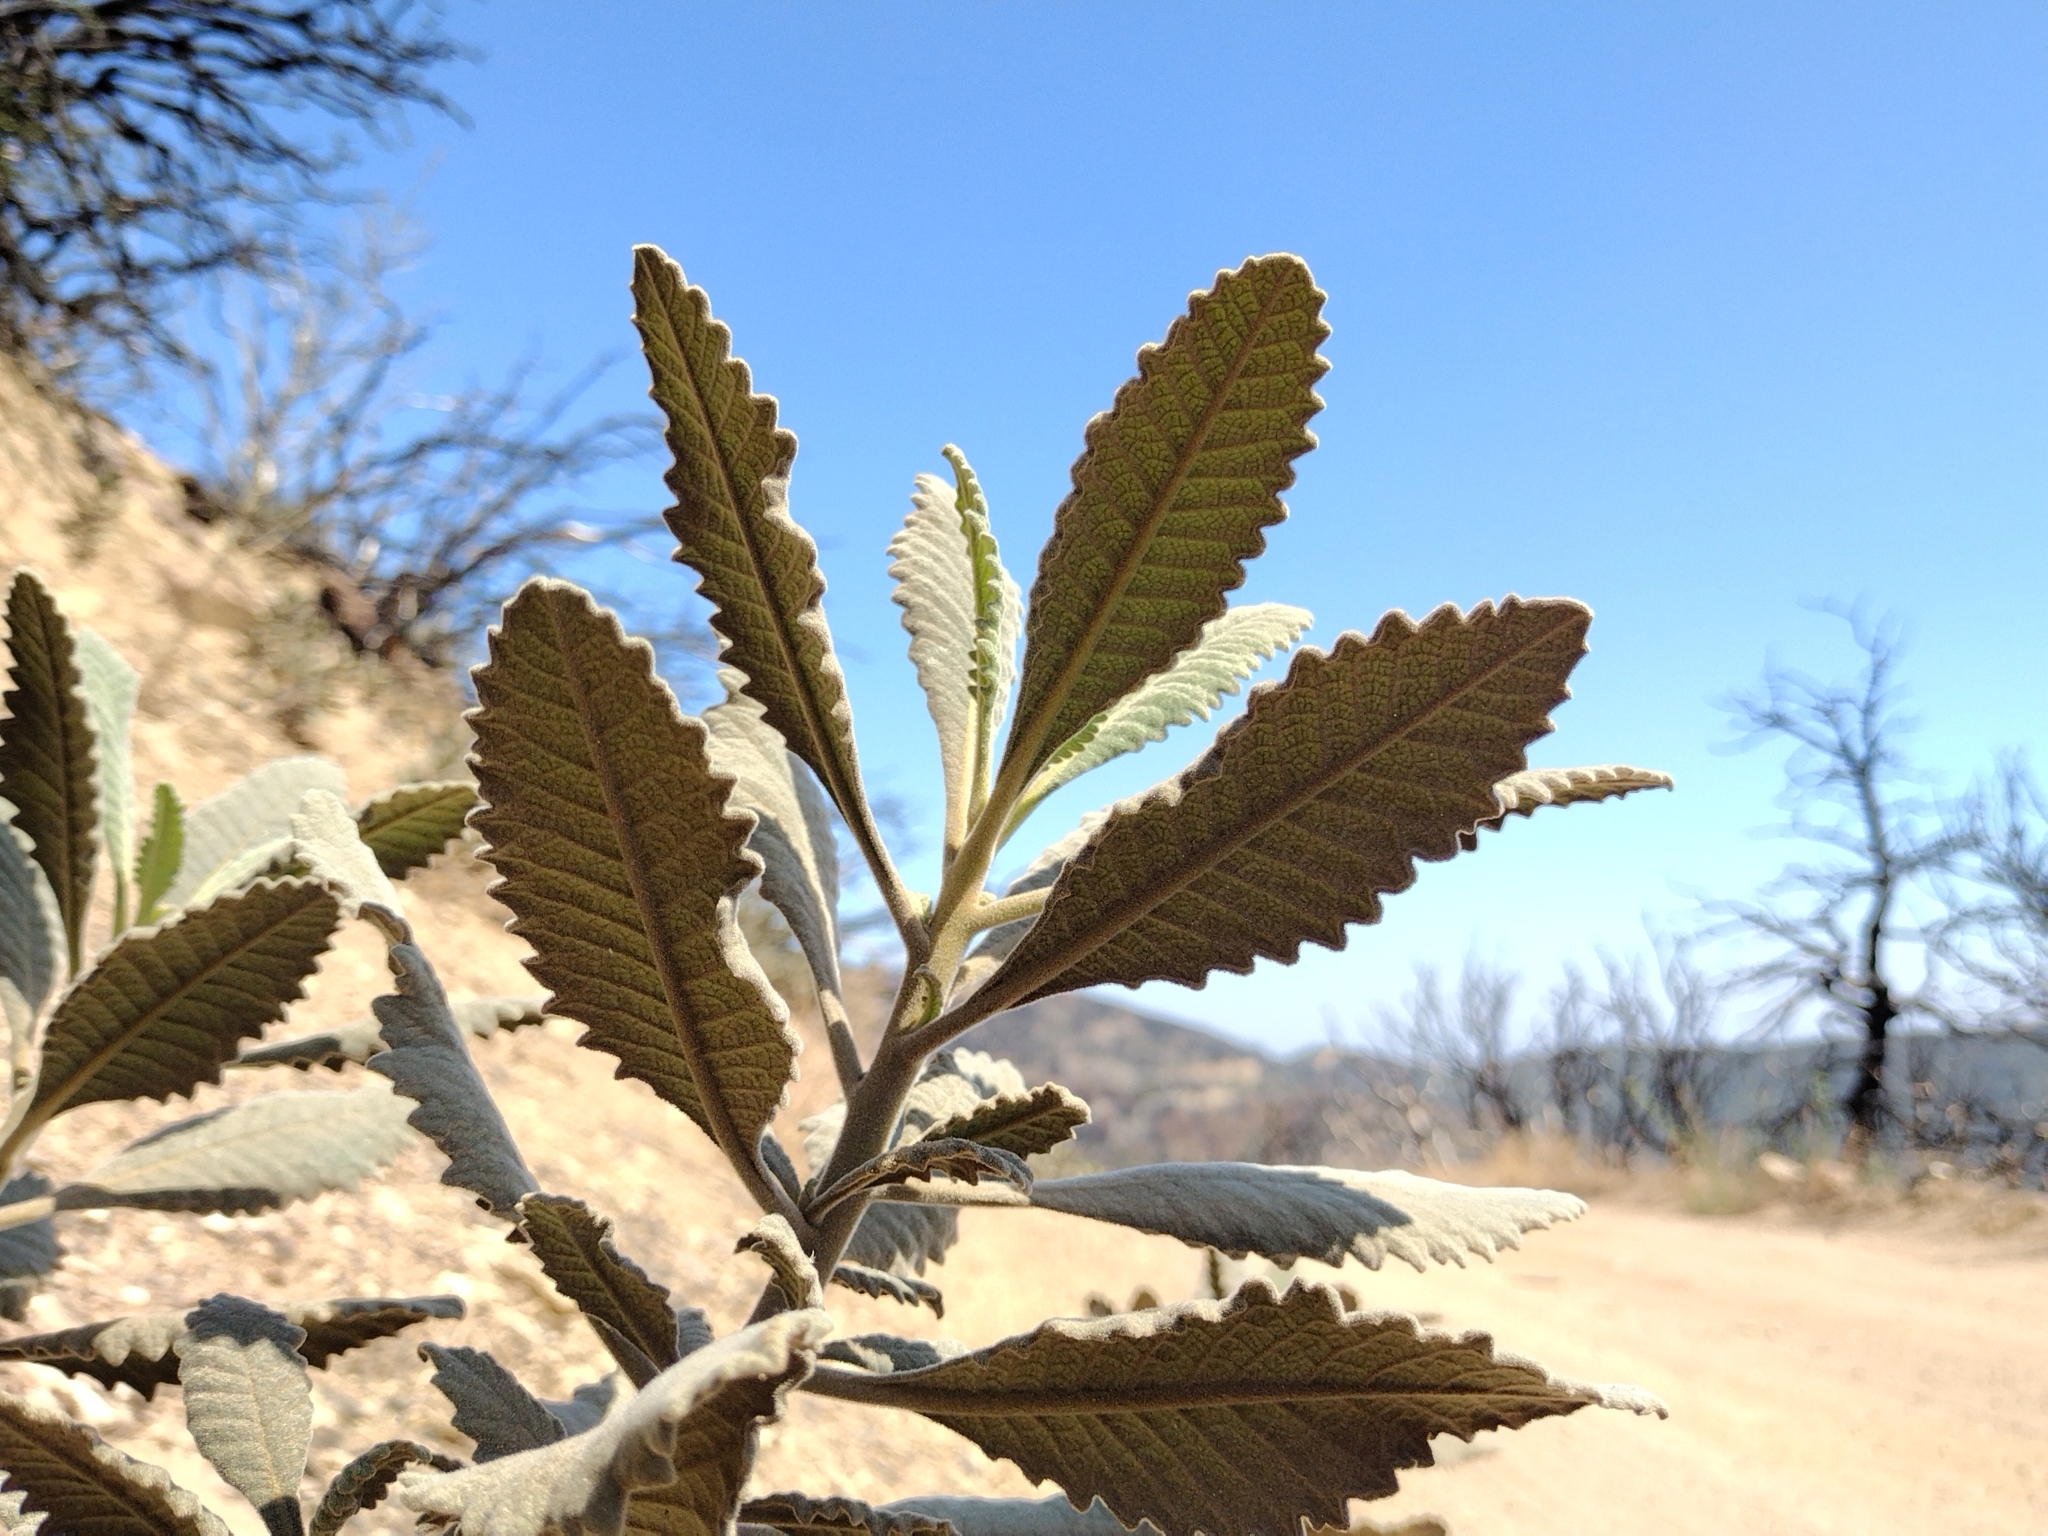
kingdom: Plantae
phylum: Tracheophyta
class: Magnoliopsida
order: Boraginales
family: Namaceae
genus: Eriodictyon
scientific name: Eriodictyon crassifolium
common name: Thick-leaf yerba-santa
